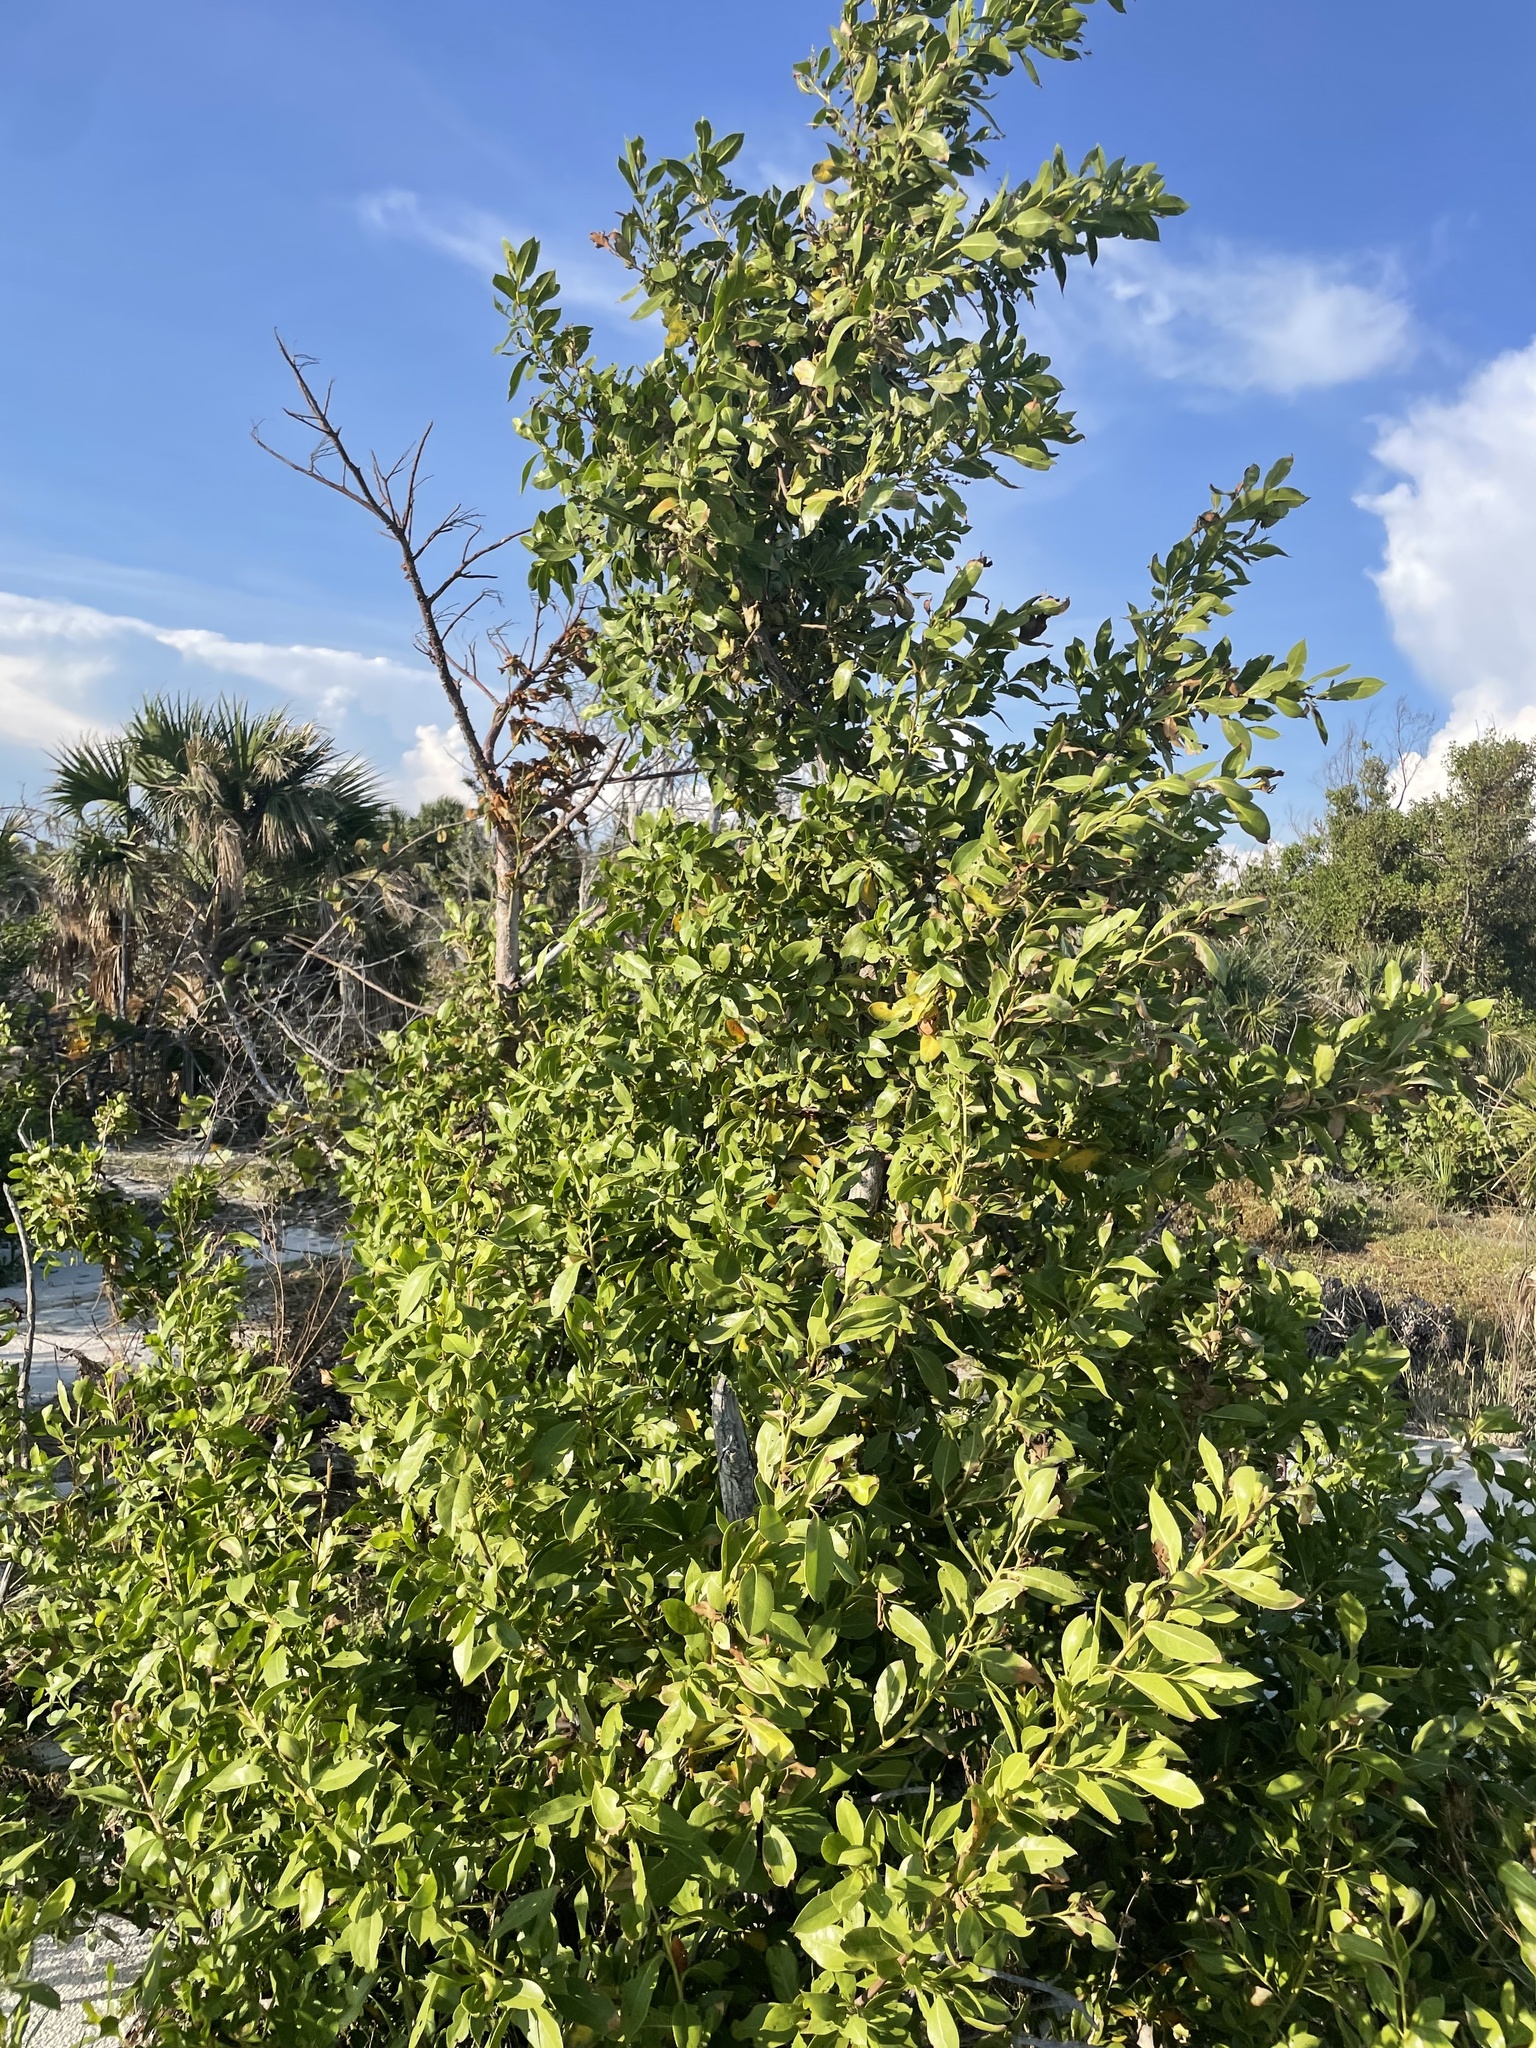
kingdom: Plantae
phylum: Tracheophyta
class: Magnoliopsida
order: Myrtales
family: Combretaceae
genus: Conocarpus
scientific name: Conocarpus erectus
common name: Button mangrove
